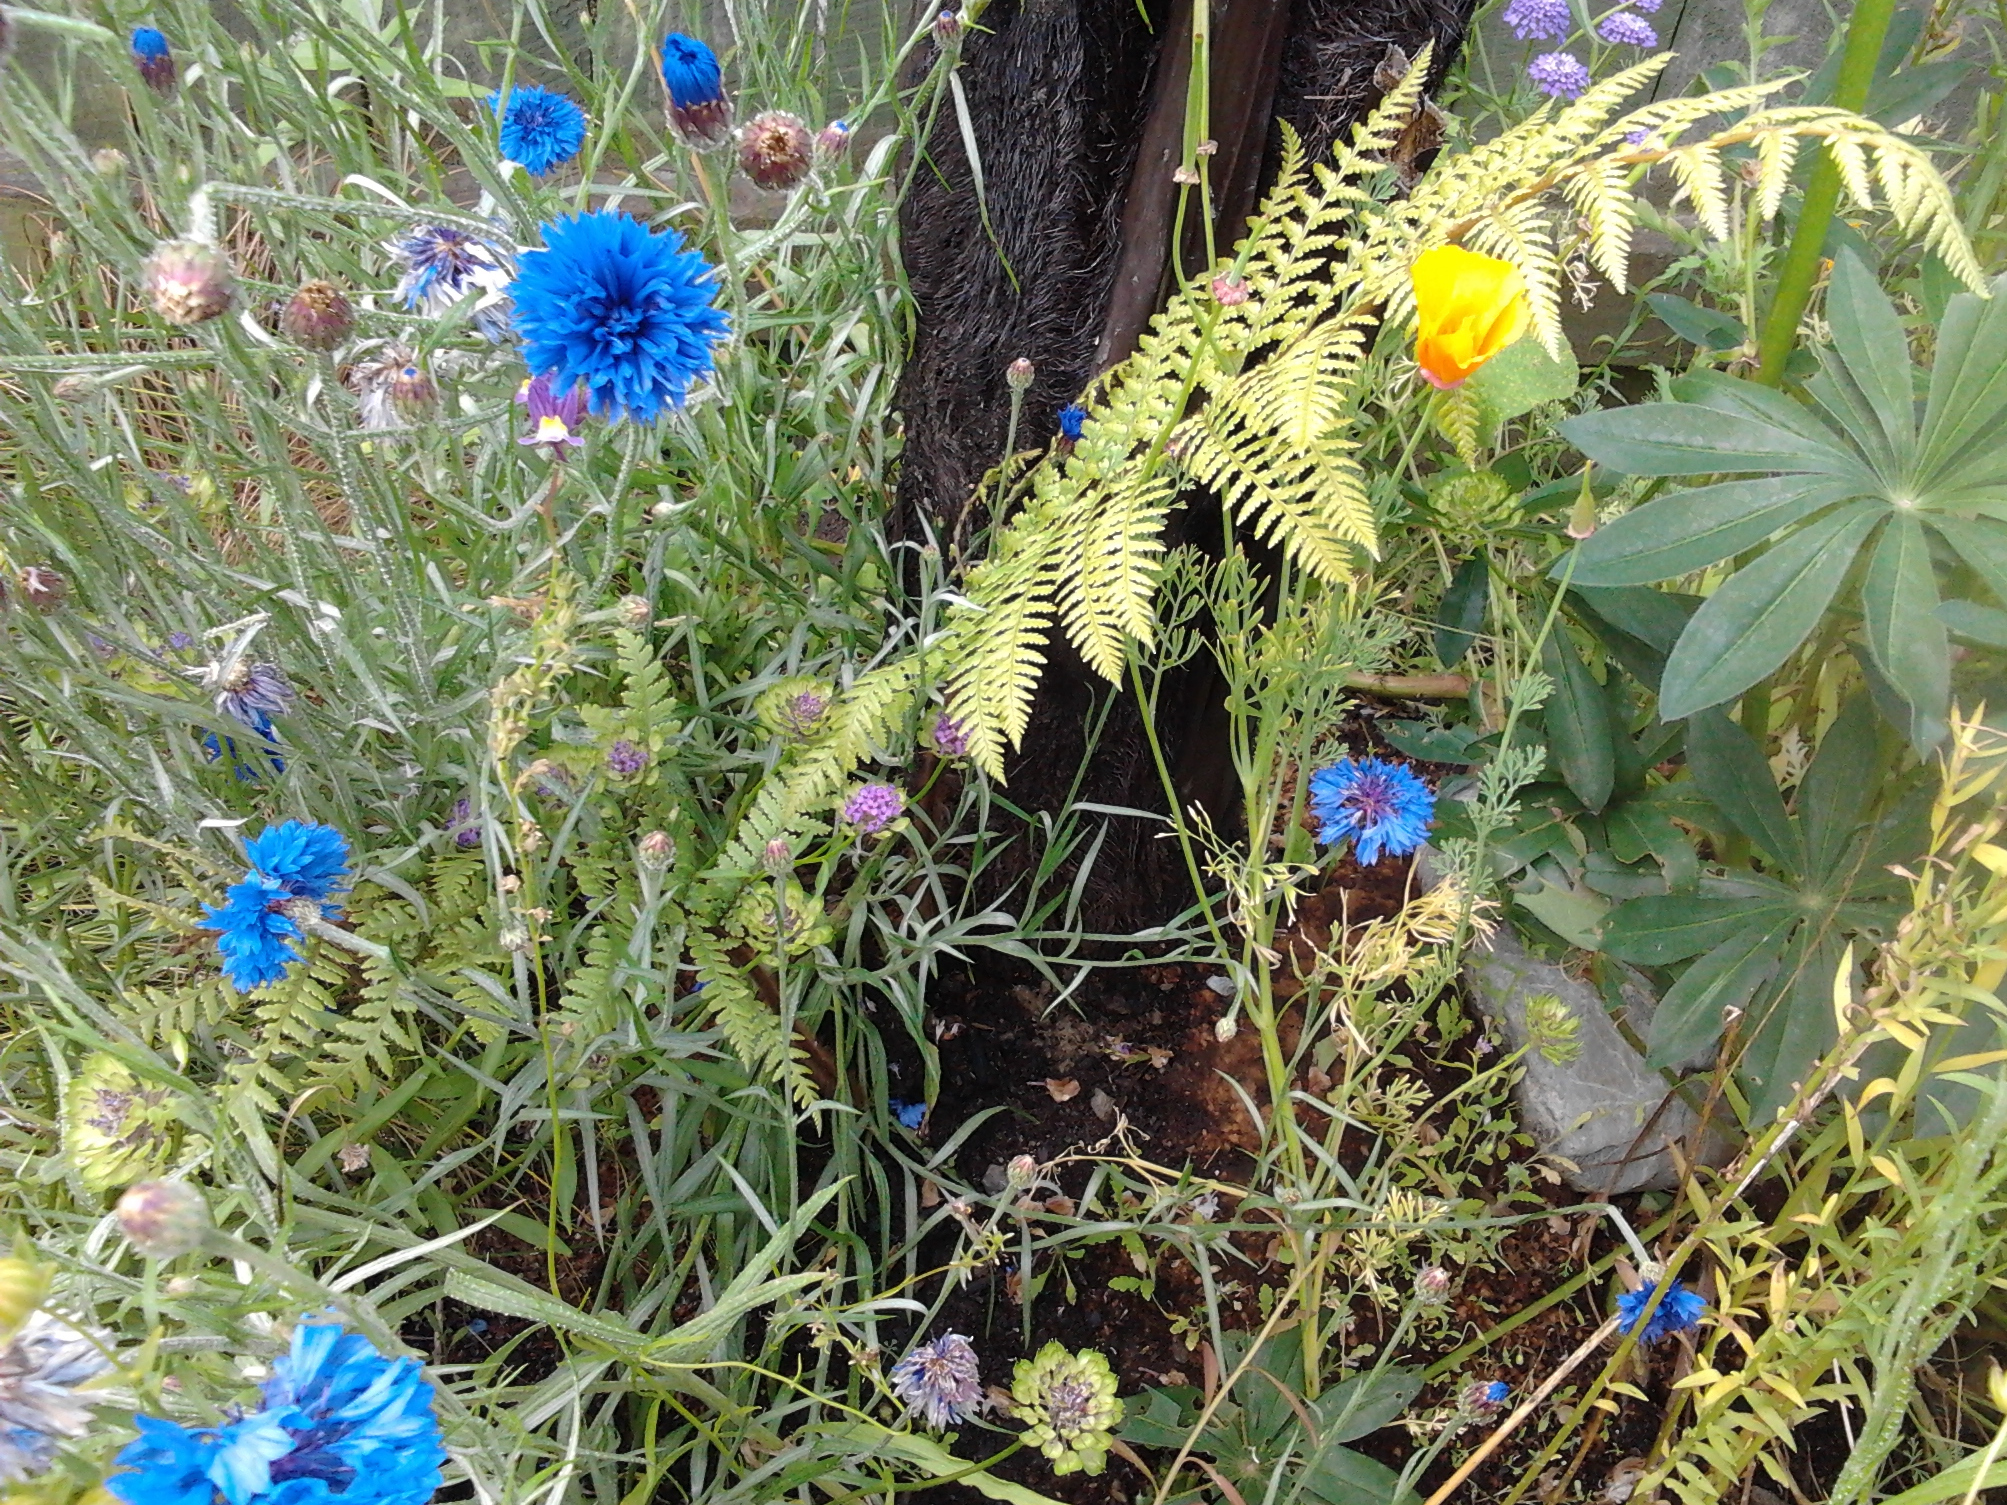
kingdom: Plantae
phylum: Tracheophyta
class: Polypodiopsida
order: Cyatheales
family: Dicksoniaceae
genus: Dicksonia
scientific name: Dicksonia squarrosa
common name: Hard treefern
